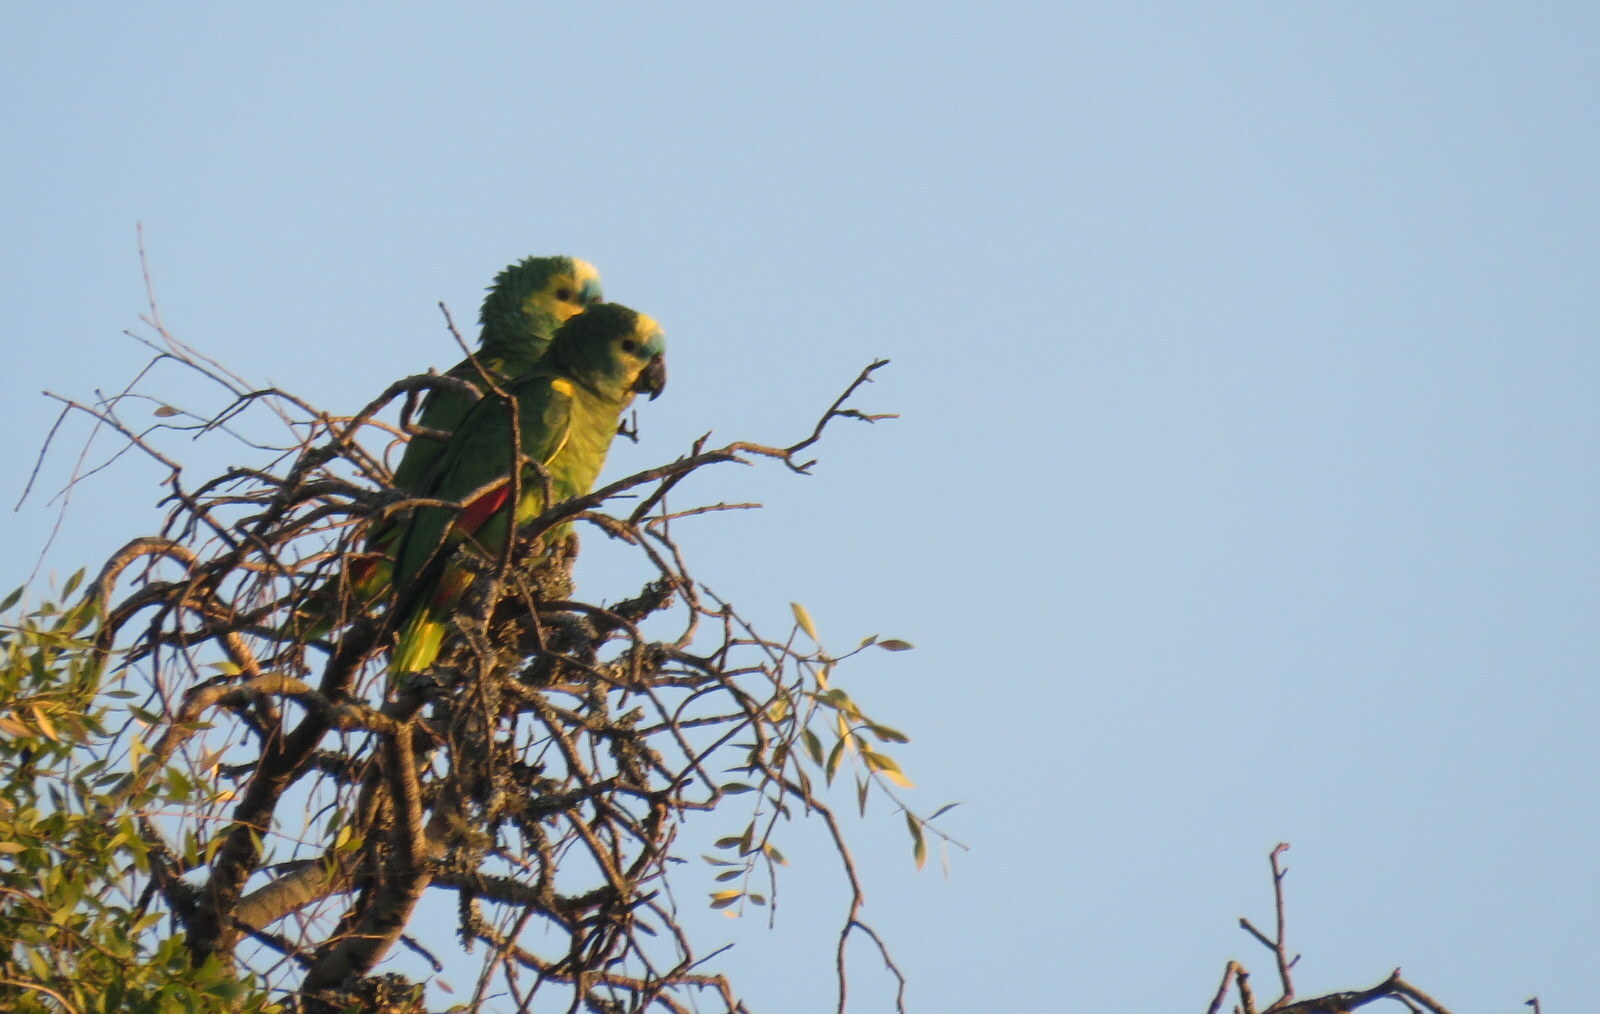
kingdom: Animalia
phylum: Chordata
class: Aves
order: Psittaciformes
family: Psittacidae
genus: Amazona
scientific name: Amazona aestiva
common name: Turquoise-fronted amazon
